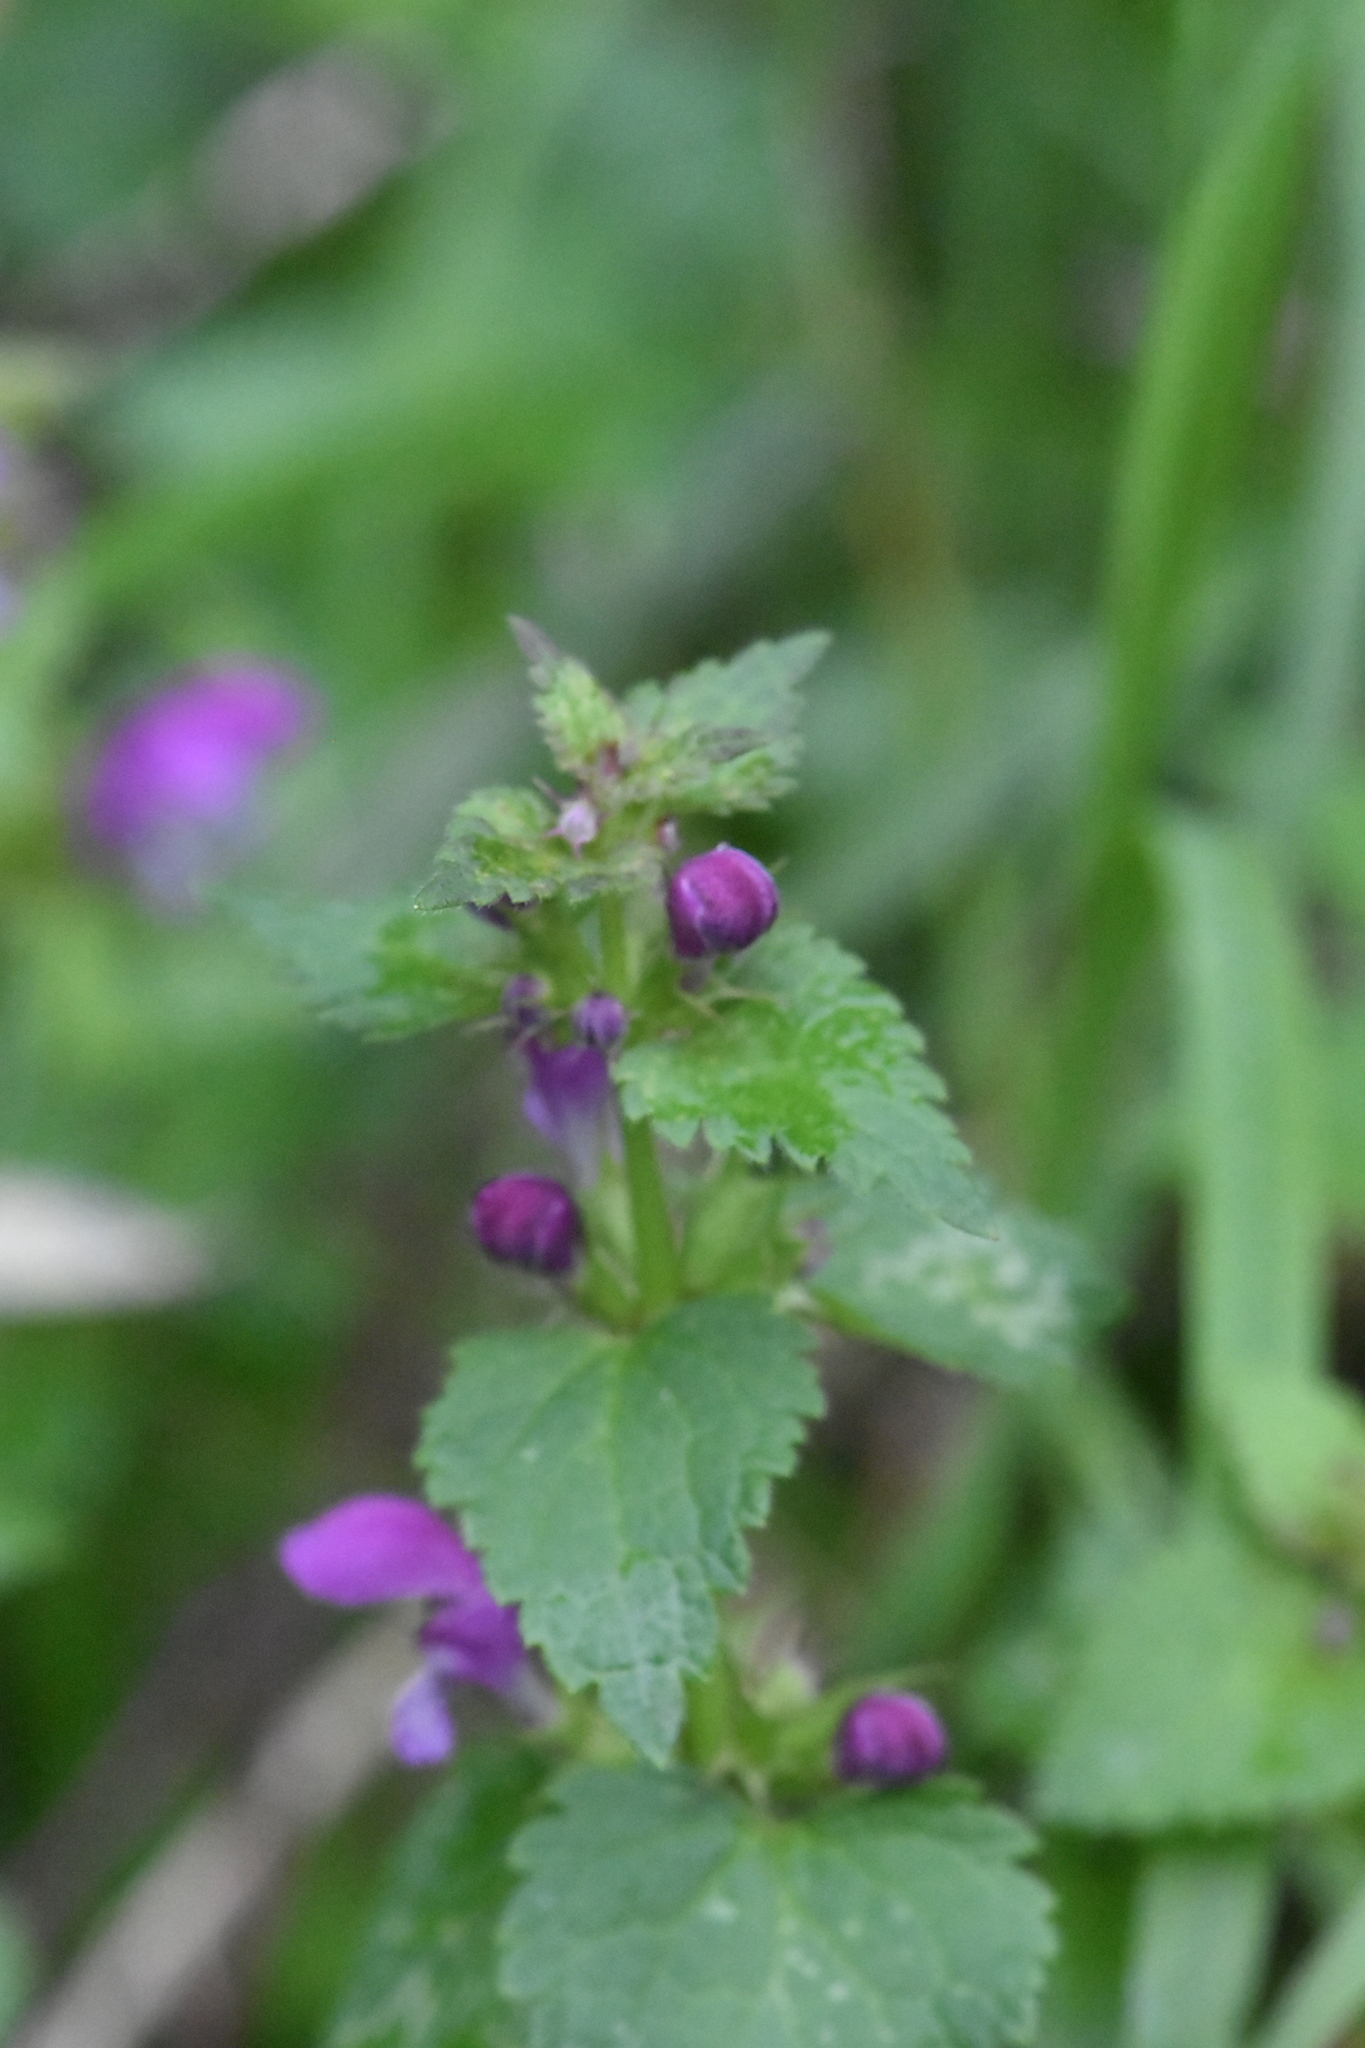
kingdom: Plantae
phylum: Tracheophyta
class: Magnoliopsida
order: Lamiales
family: Lamiaceae
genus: Lamium
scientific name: Lamium maculatum
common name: Spotted dead-nettle
